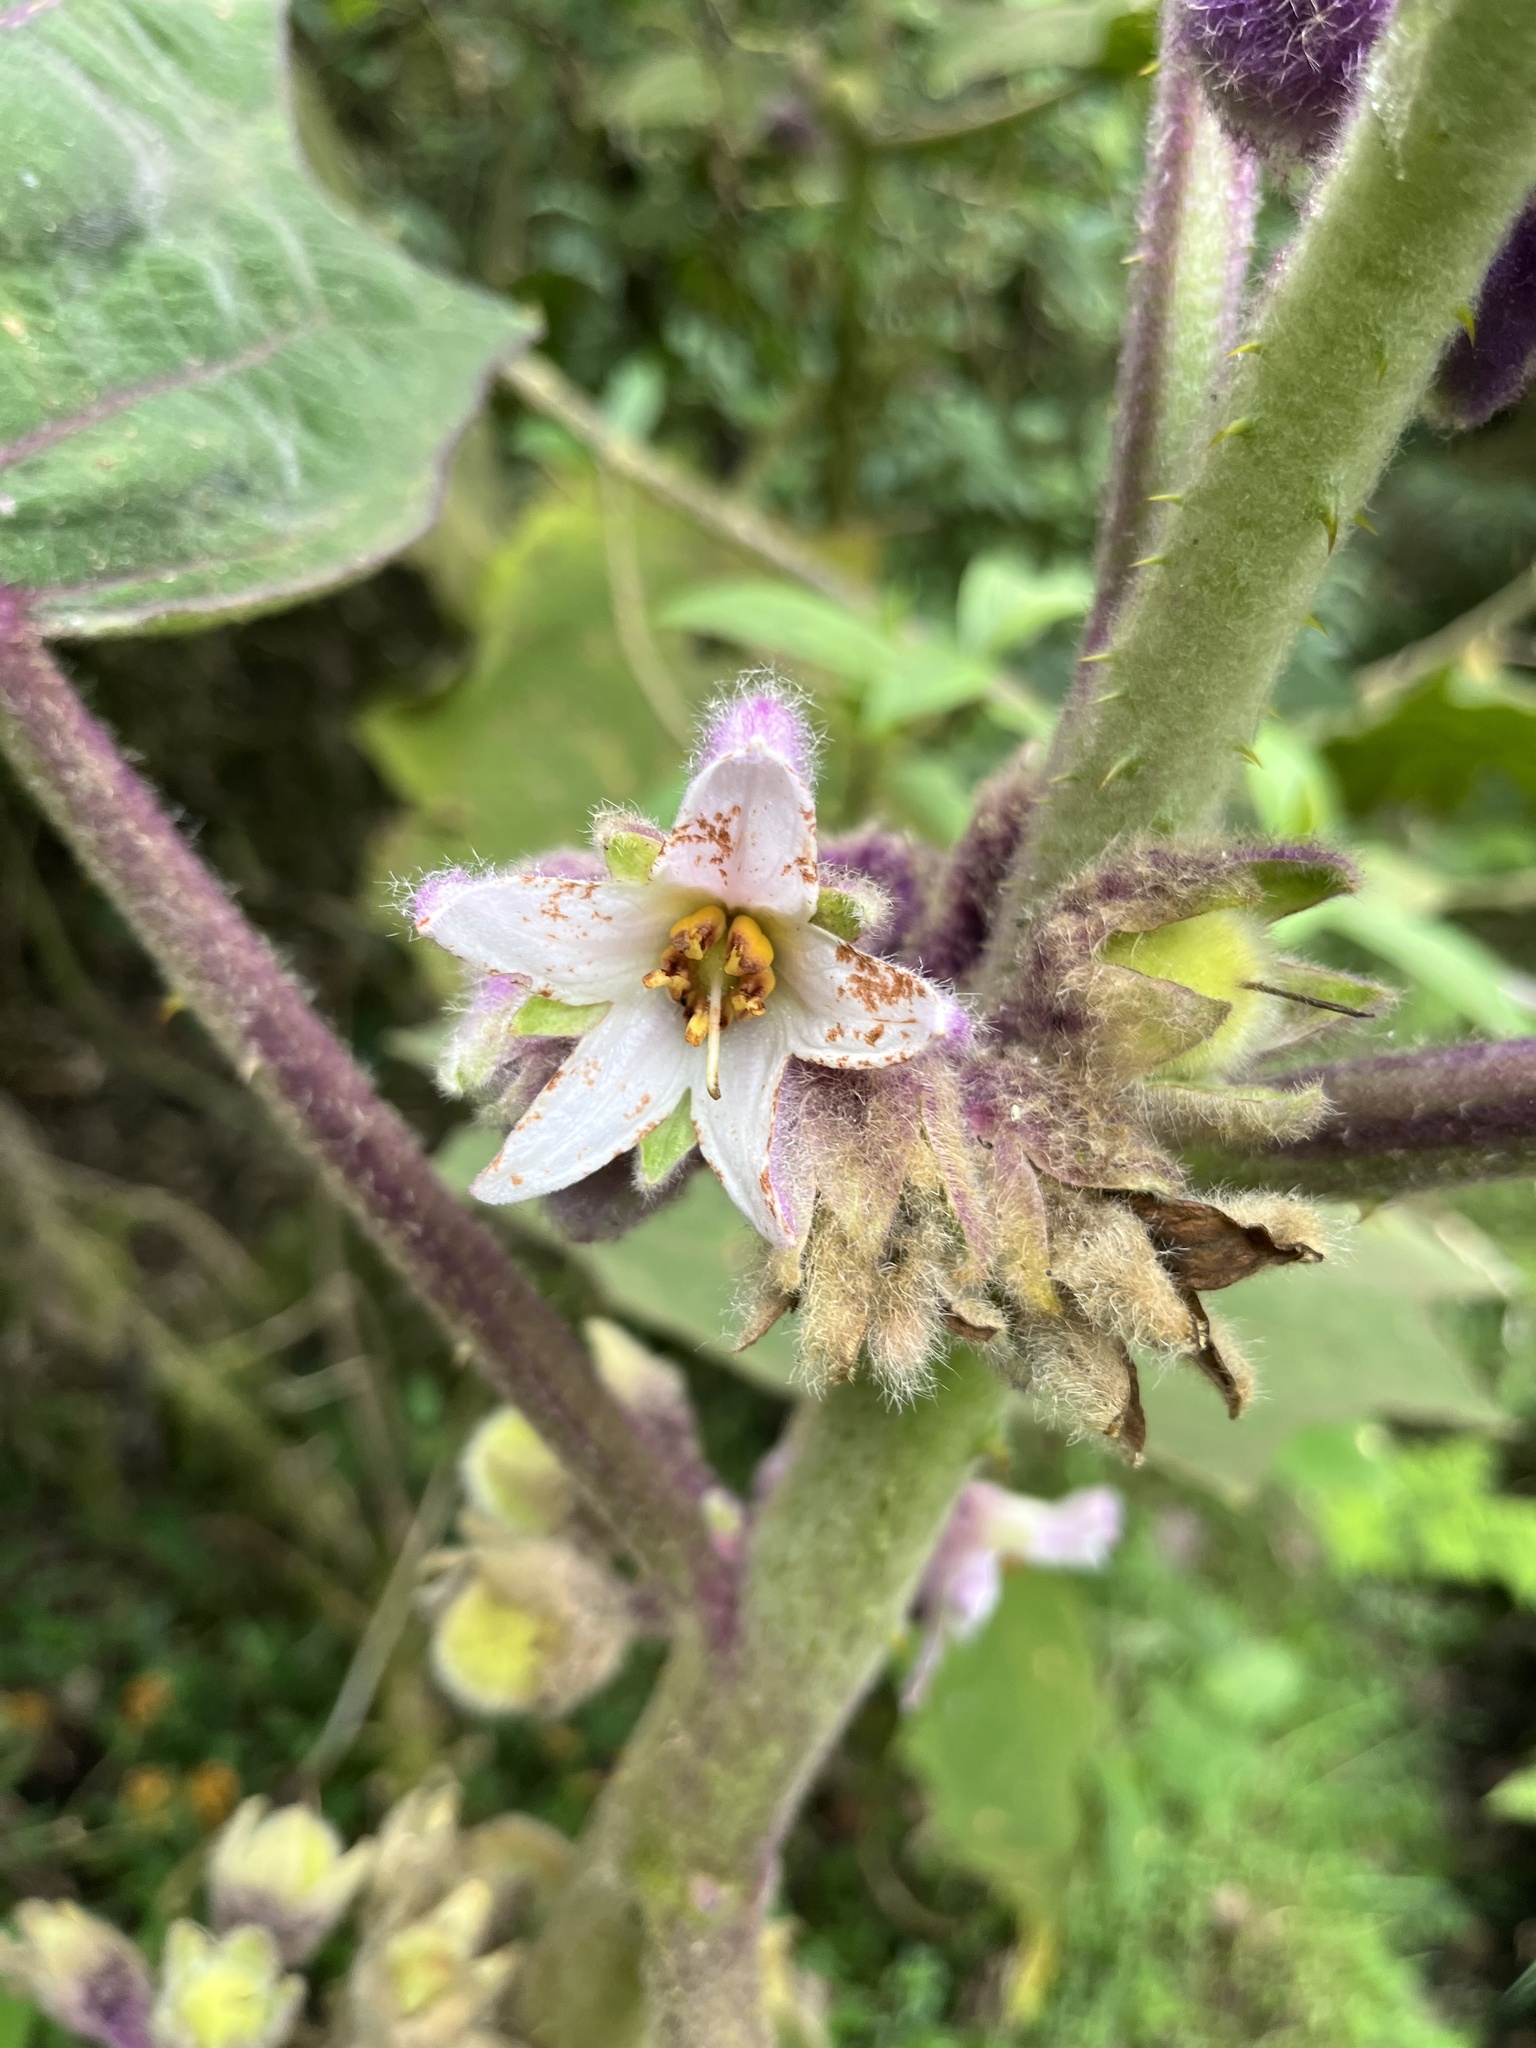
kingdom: Plantae
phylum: Tracheophyta
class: Magnoliopsida
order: Solanales
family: Solanaceae
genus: Solanum
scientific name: Solanum quitoense
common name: Quito-orange
